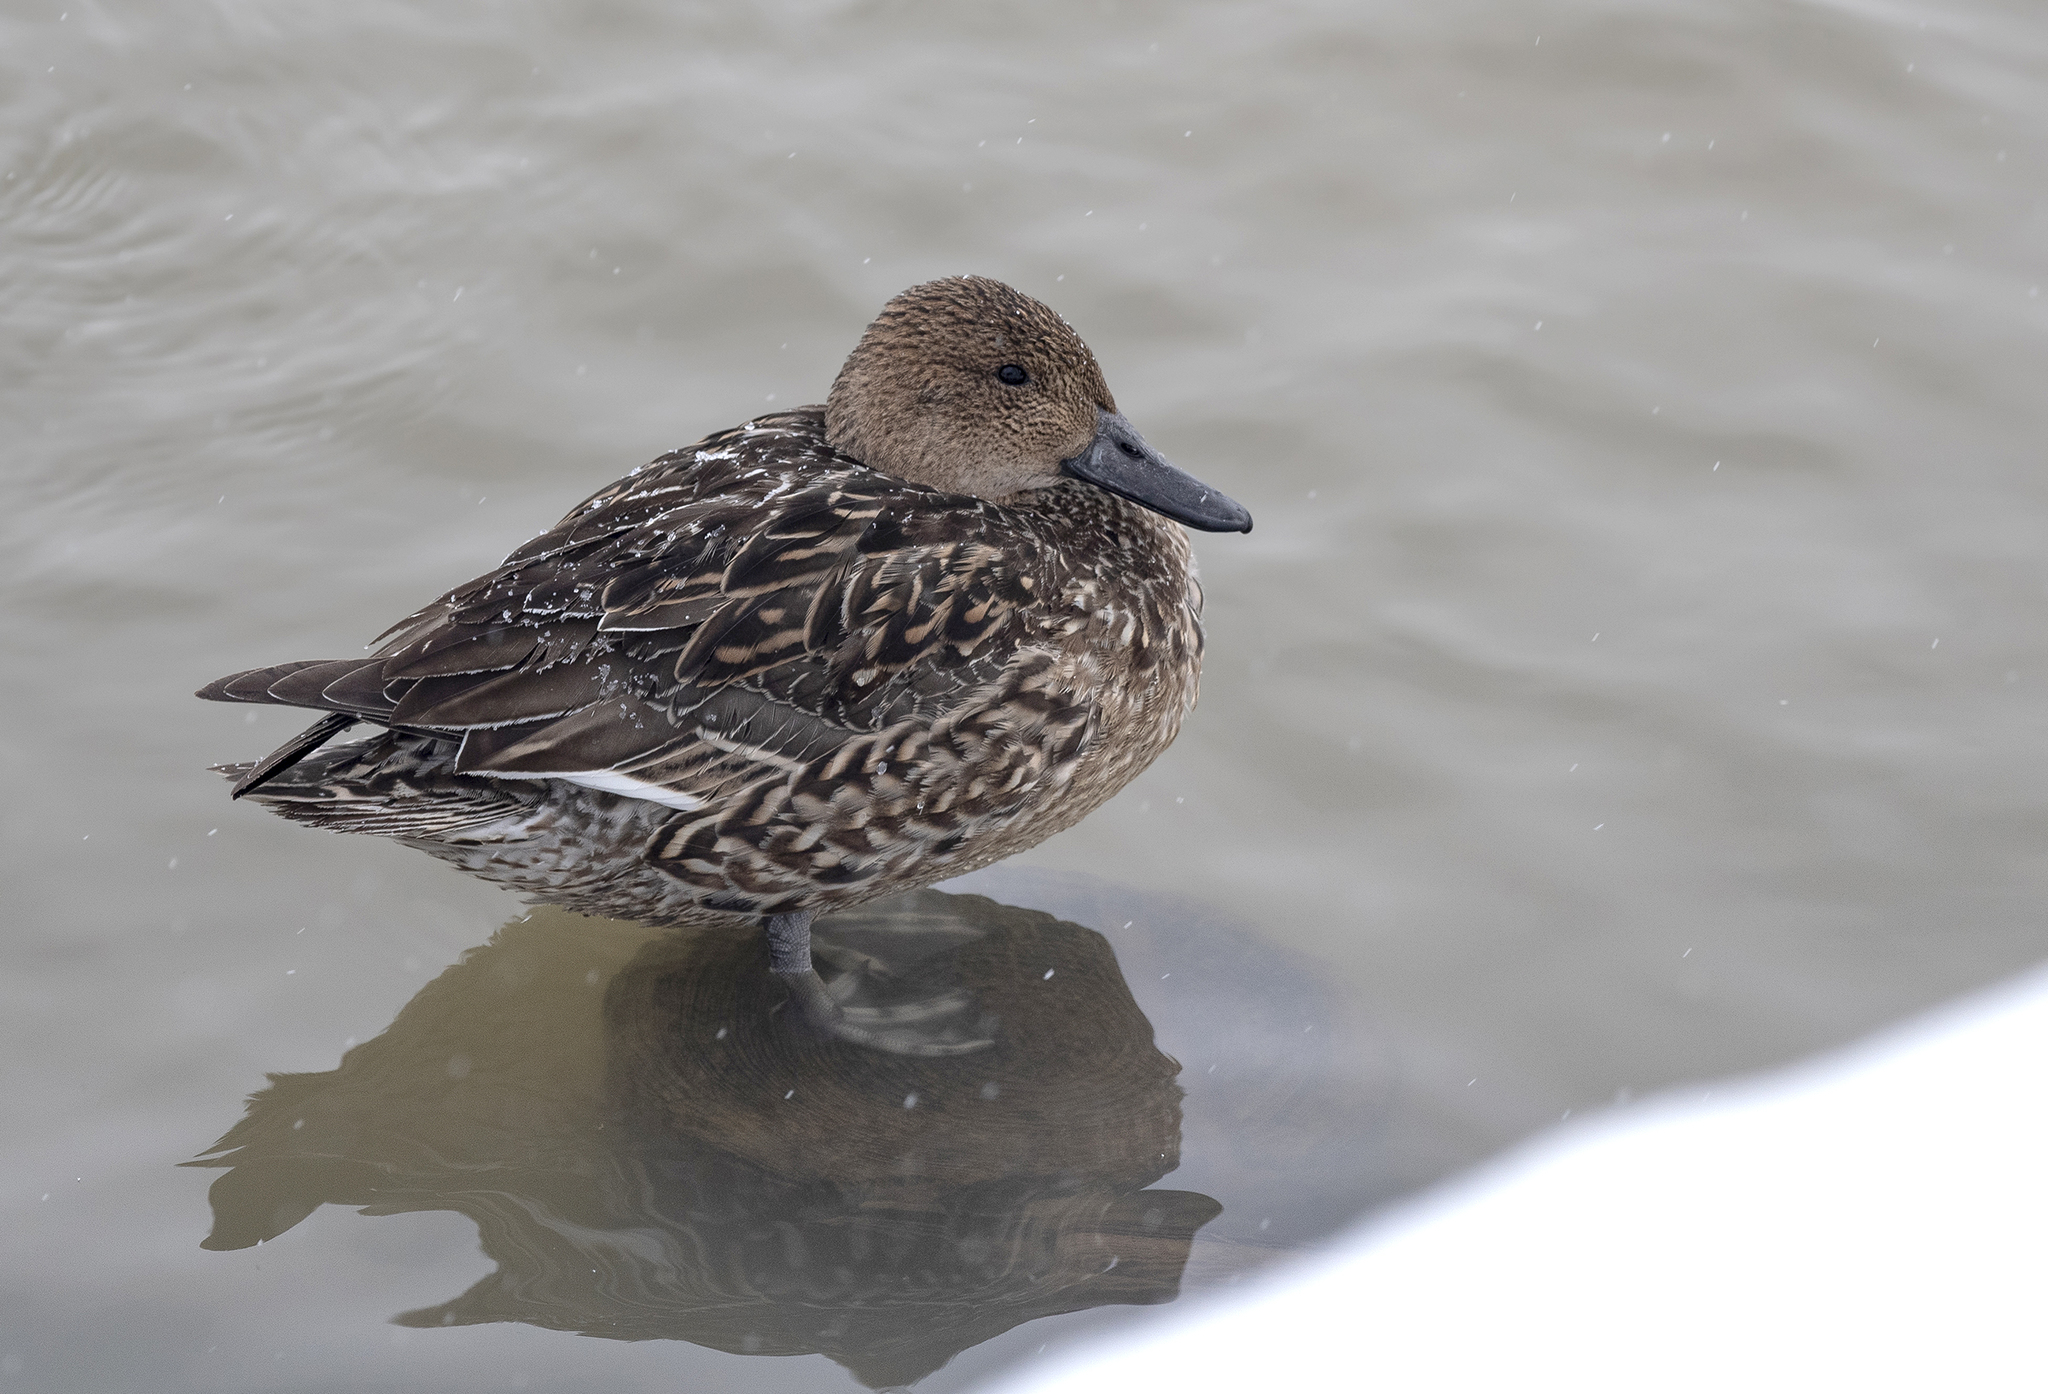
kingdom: Animalia
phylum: Chordata
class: Aves
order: Anseriformes
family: Anatidae
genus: Anas
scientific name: Anas acuta
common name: Northern pintail
